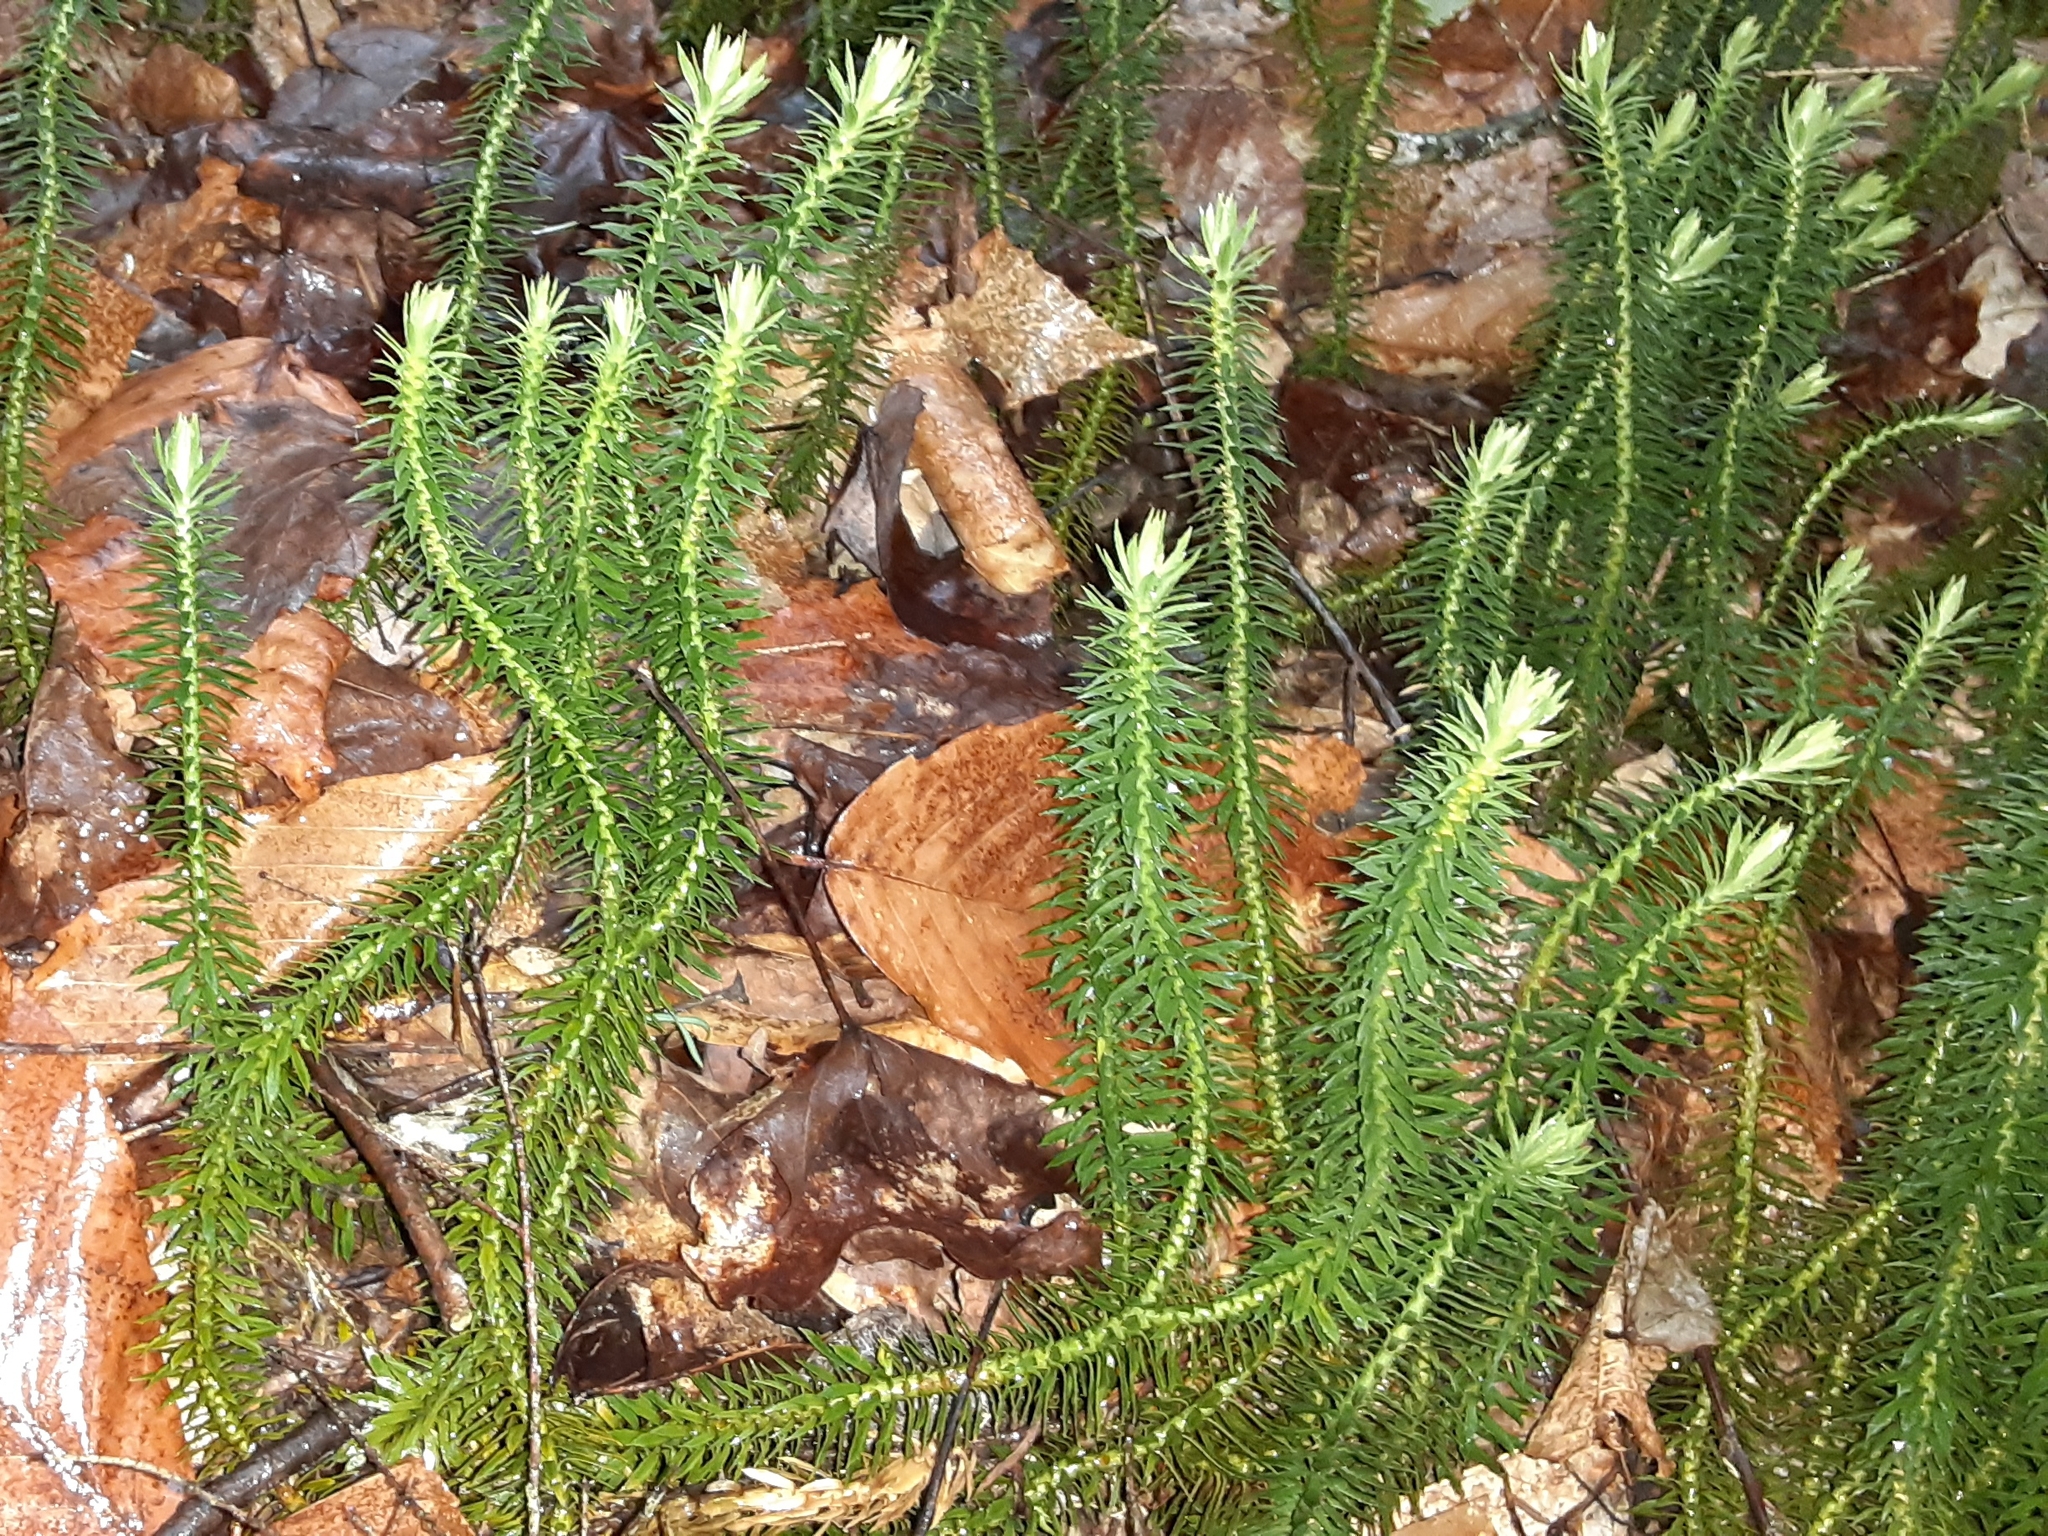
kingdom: Plantae
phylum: Tracheophyta
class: Lycopodiopsida
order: Lycopodiales
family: Lycopodiaceae
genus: Huperzia
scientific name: Huperzia lucidula
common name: Shining clubmoss
